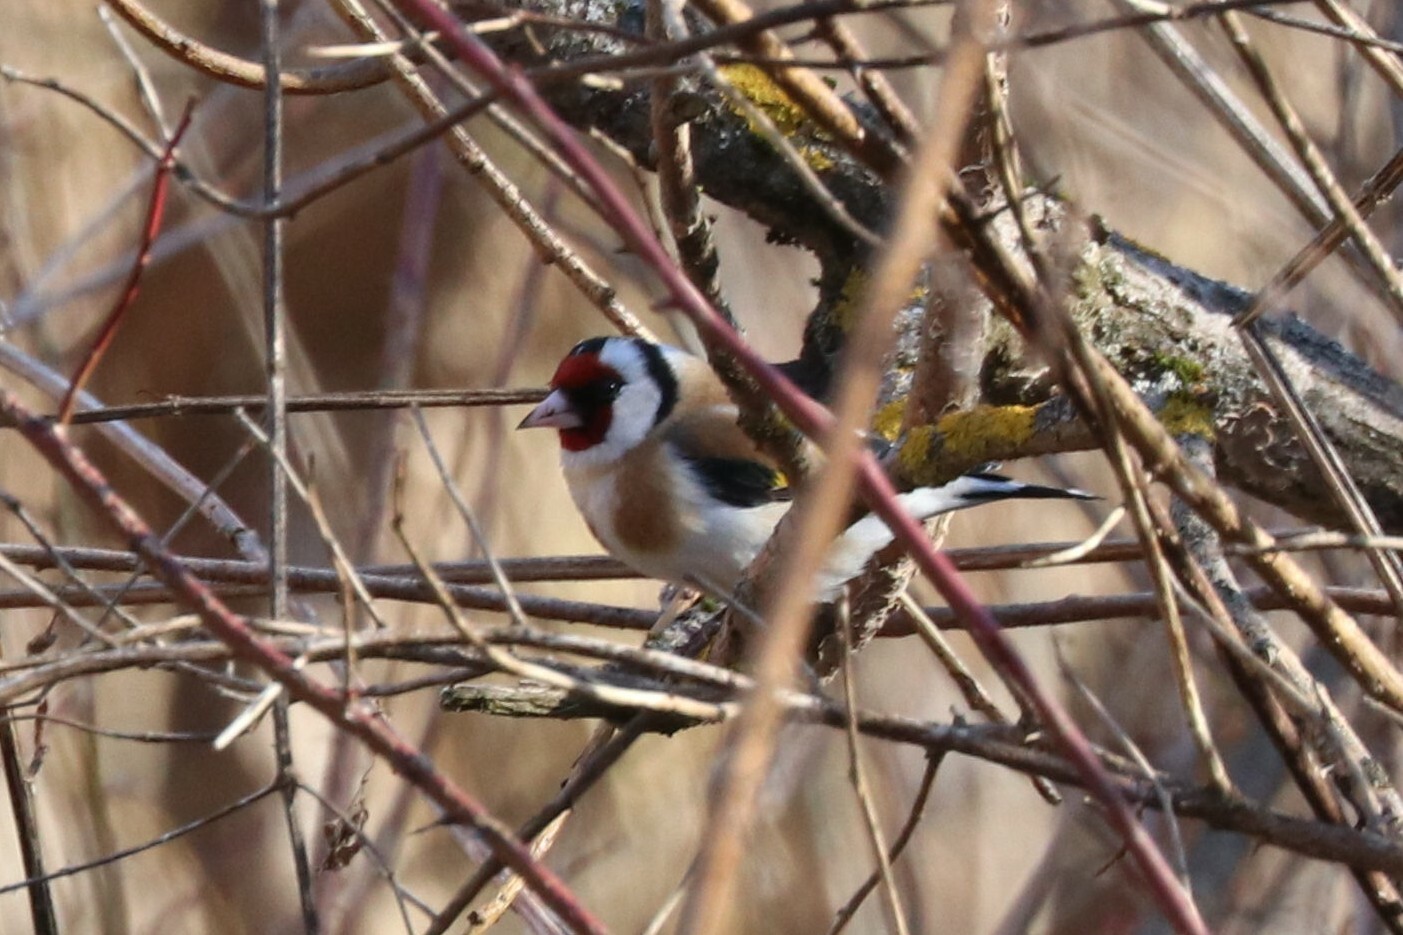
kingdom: Animalia
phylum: Chordata
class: Aves
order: Passeriformes
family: Fringillidae
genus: Carduelis
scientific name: Carduelis carduelis
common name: European goldfinch
